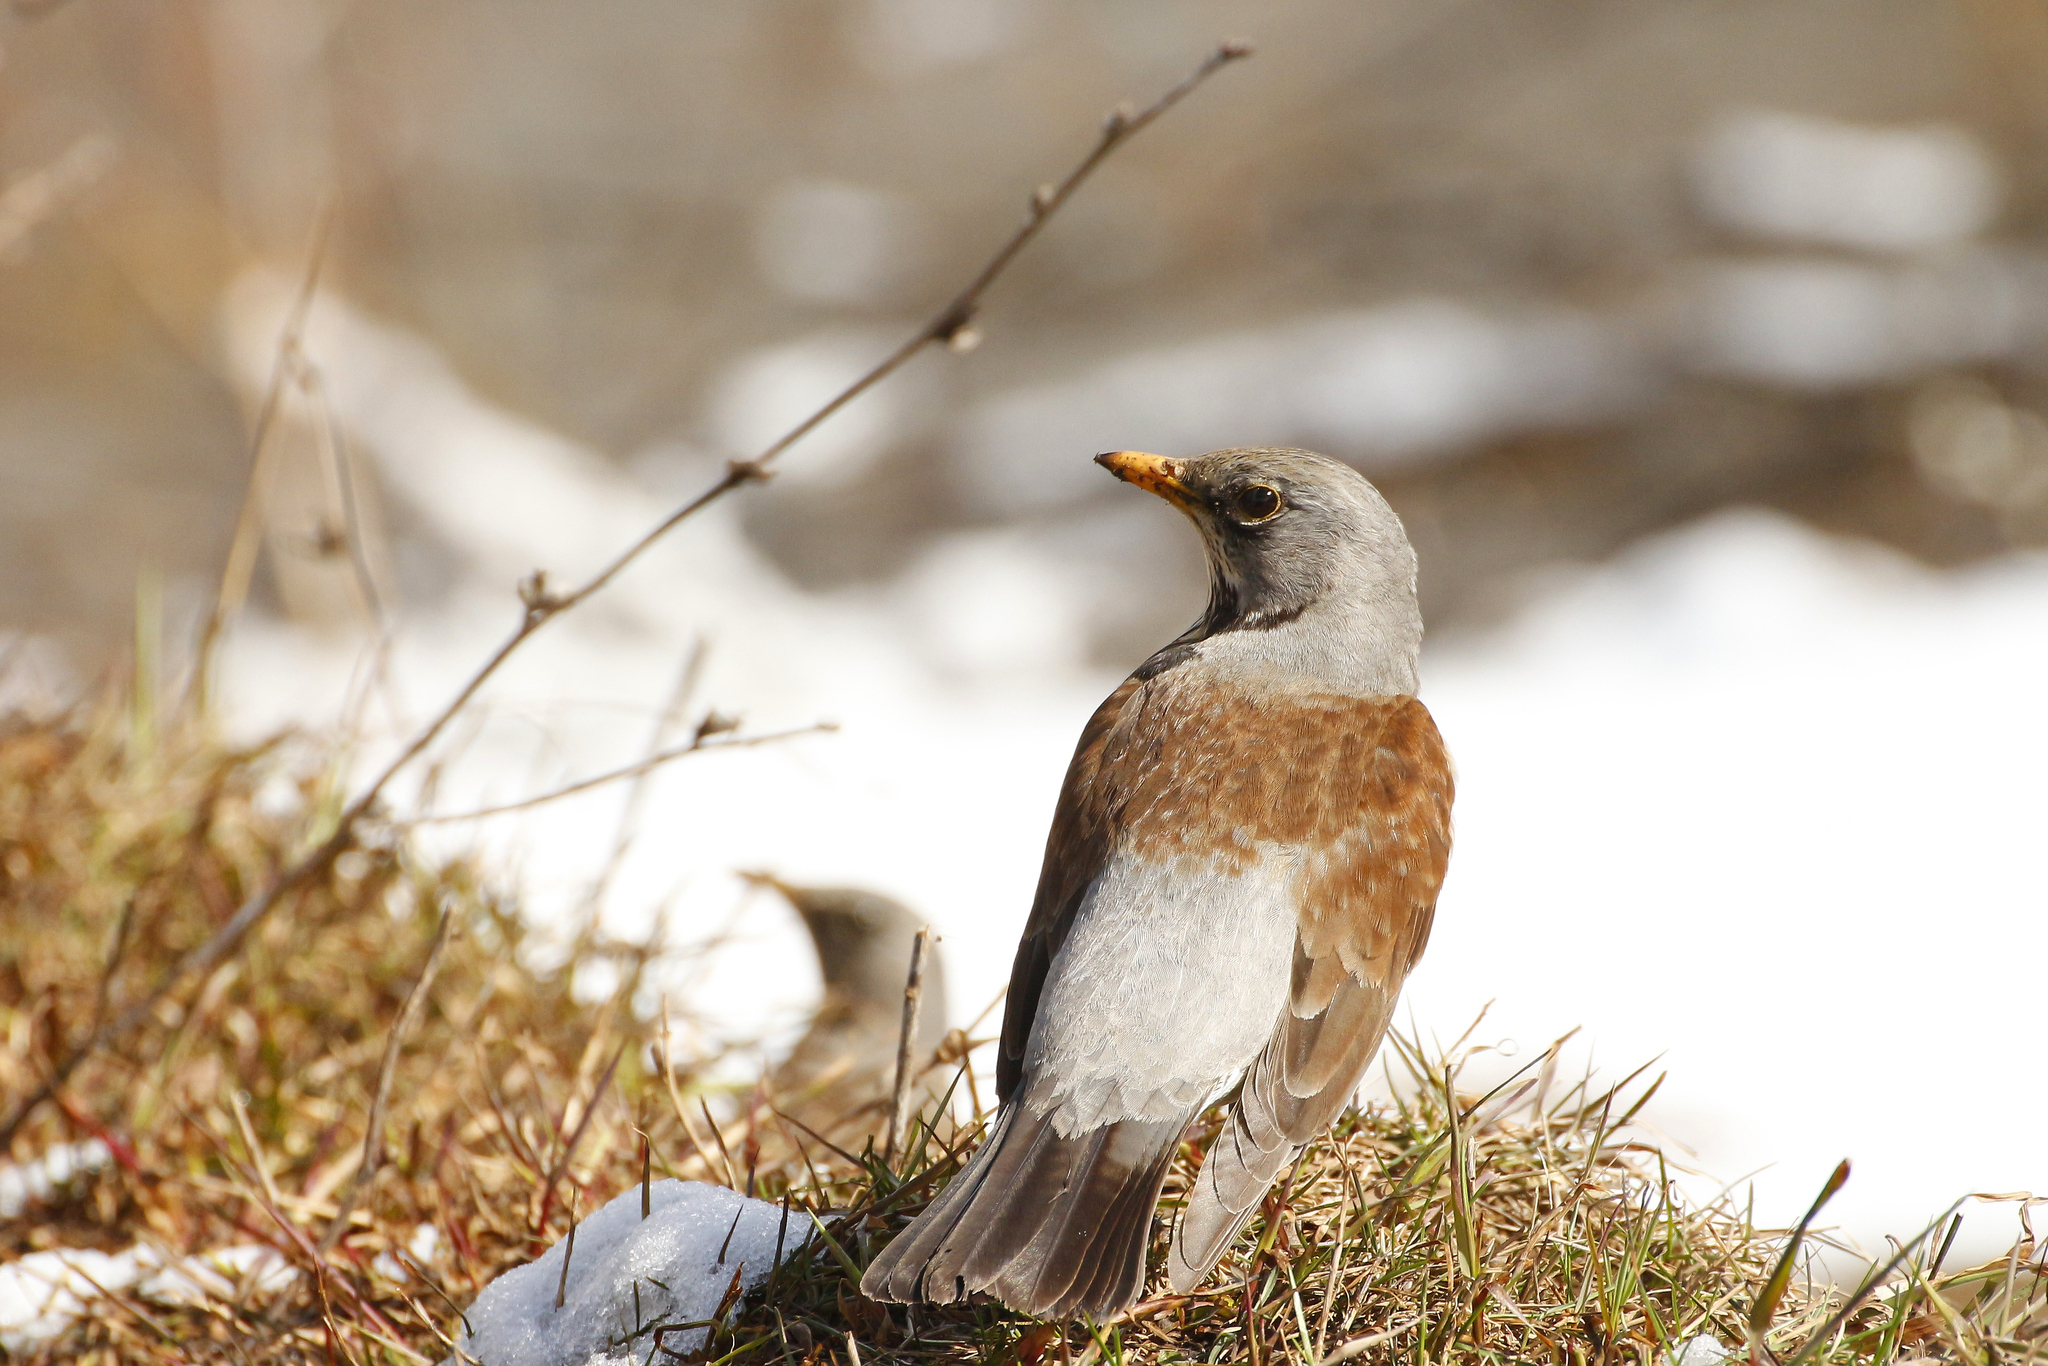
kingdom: Animalia
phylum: Chordata
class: Aves
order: Passeriformes
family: Turdidae
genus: Turdus
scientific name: Turdus pilaris
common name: Fieldfare
